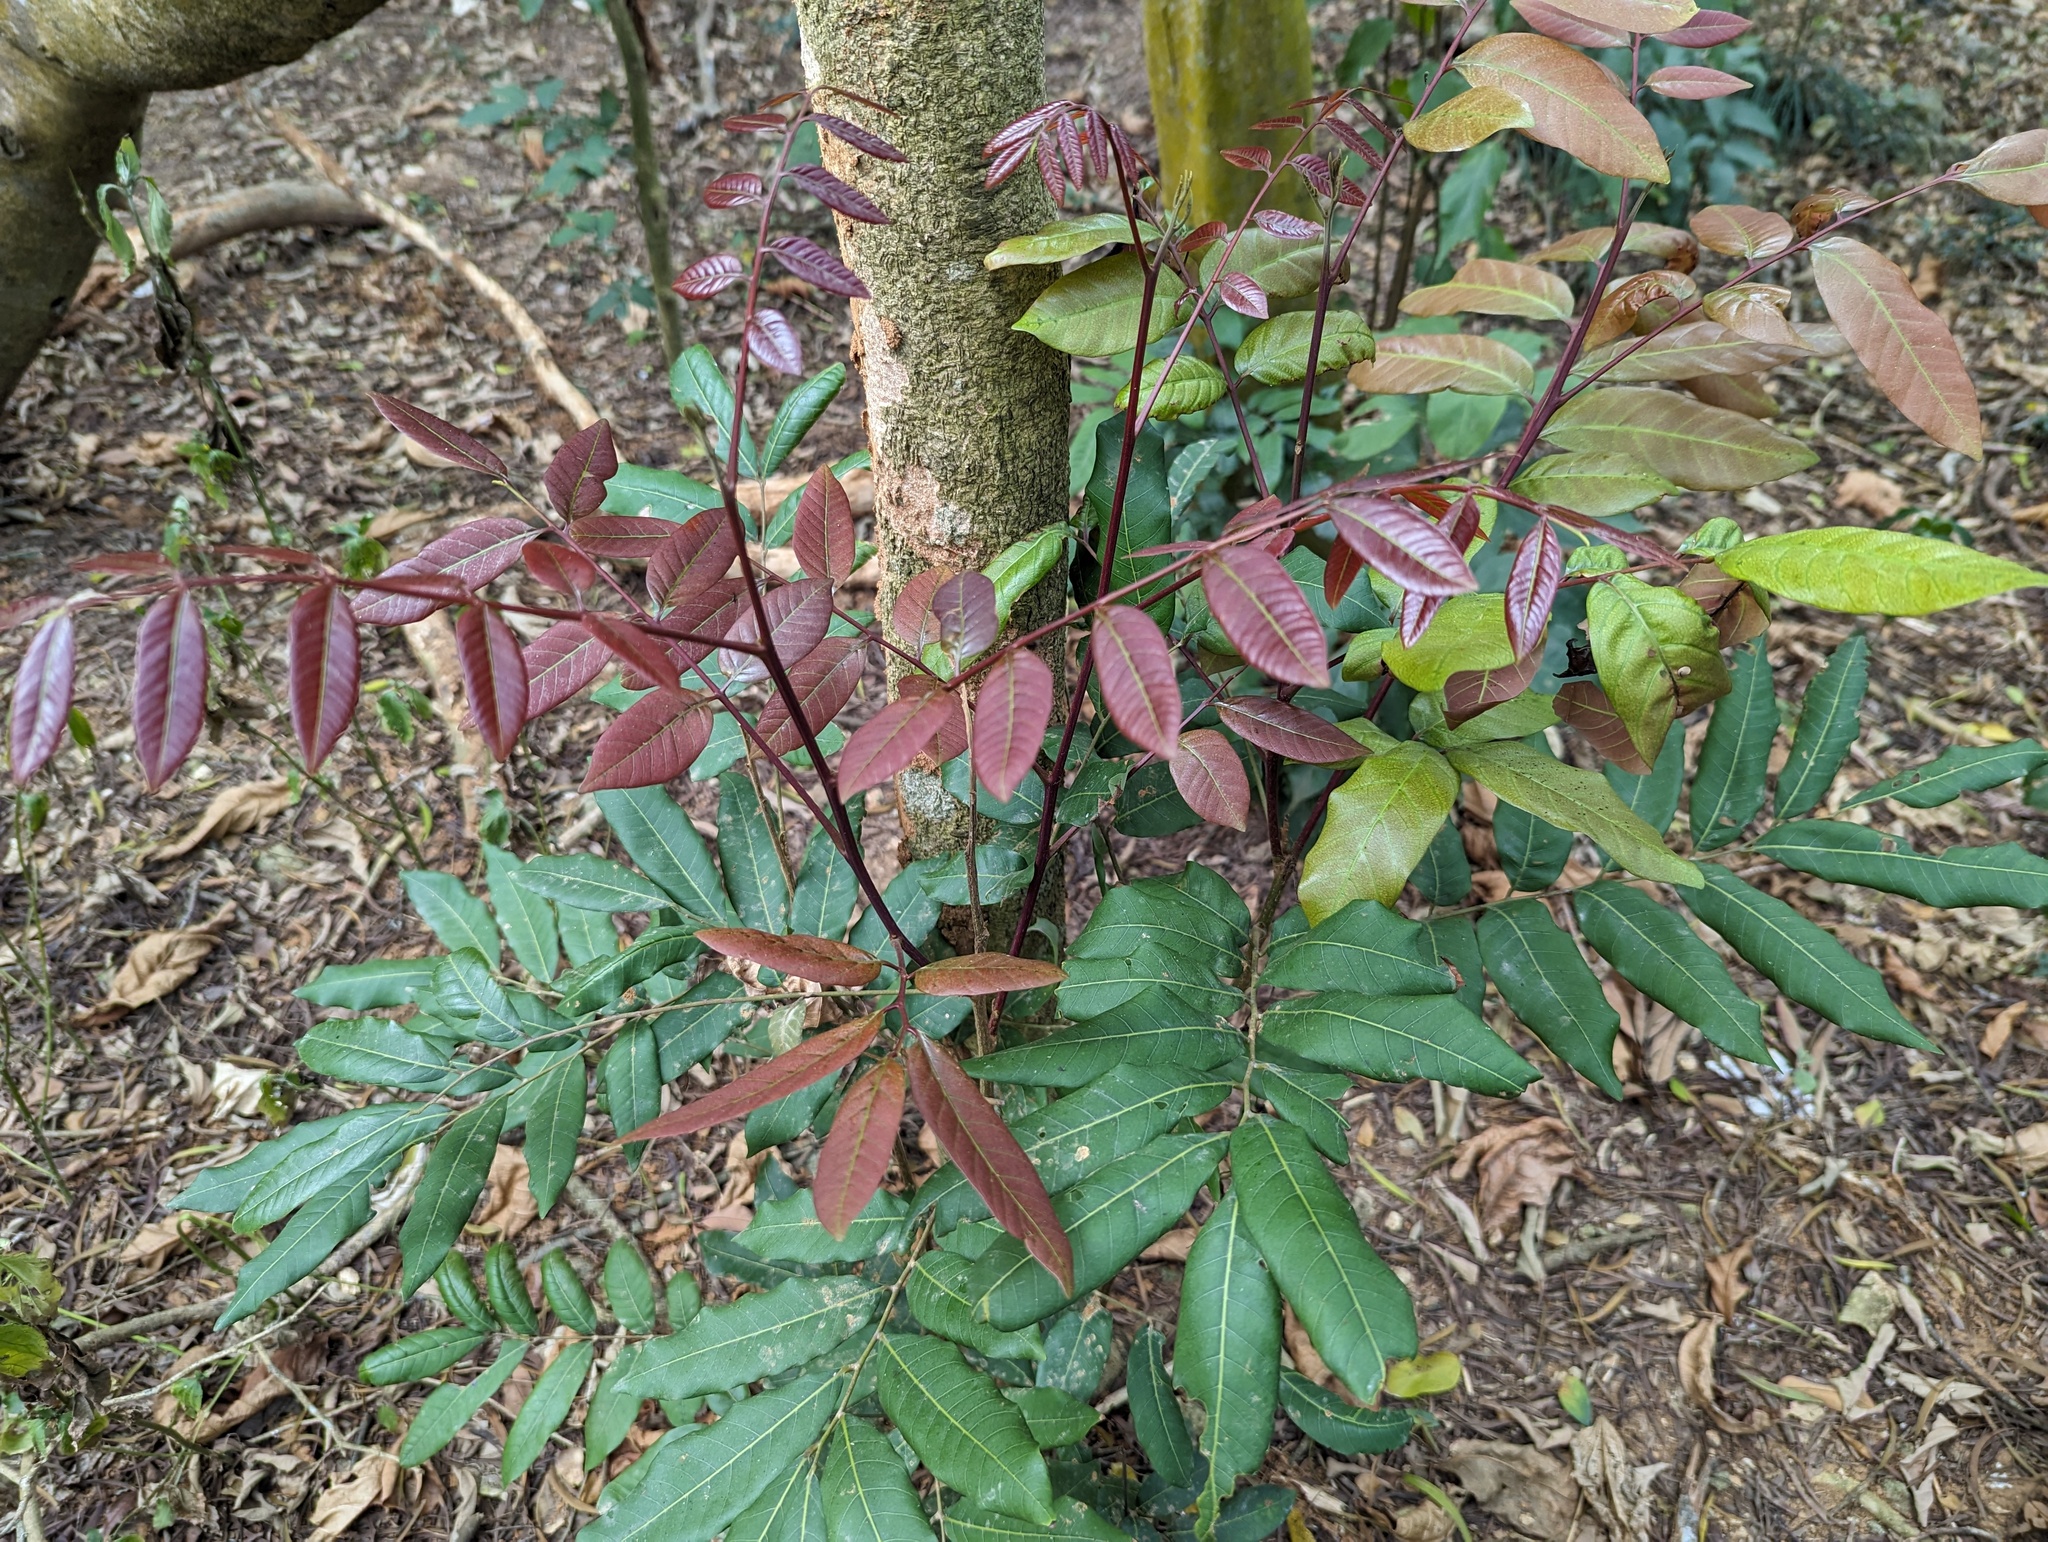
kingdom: Plantae
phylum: Tracheophyta
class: Magnoliopsida
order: Sapindales
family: Sapindaceae
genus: Dimocarpus
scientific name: Dimocarpus longan
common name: Longan
